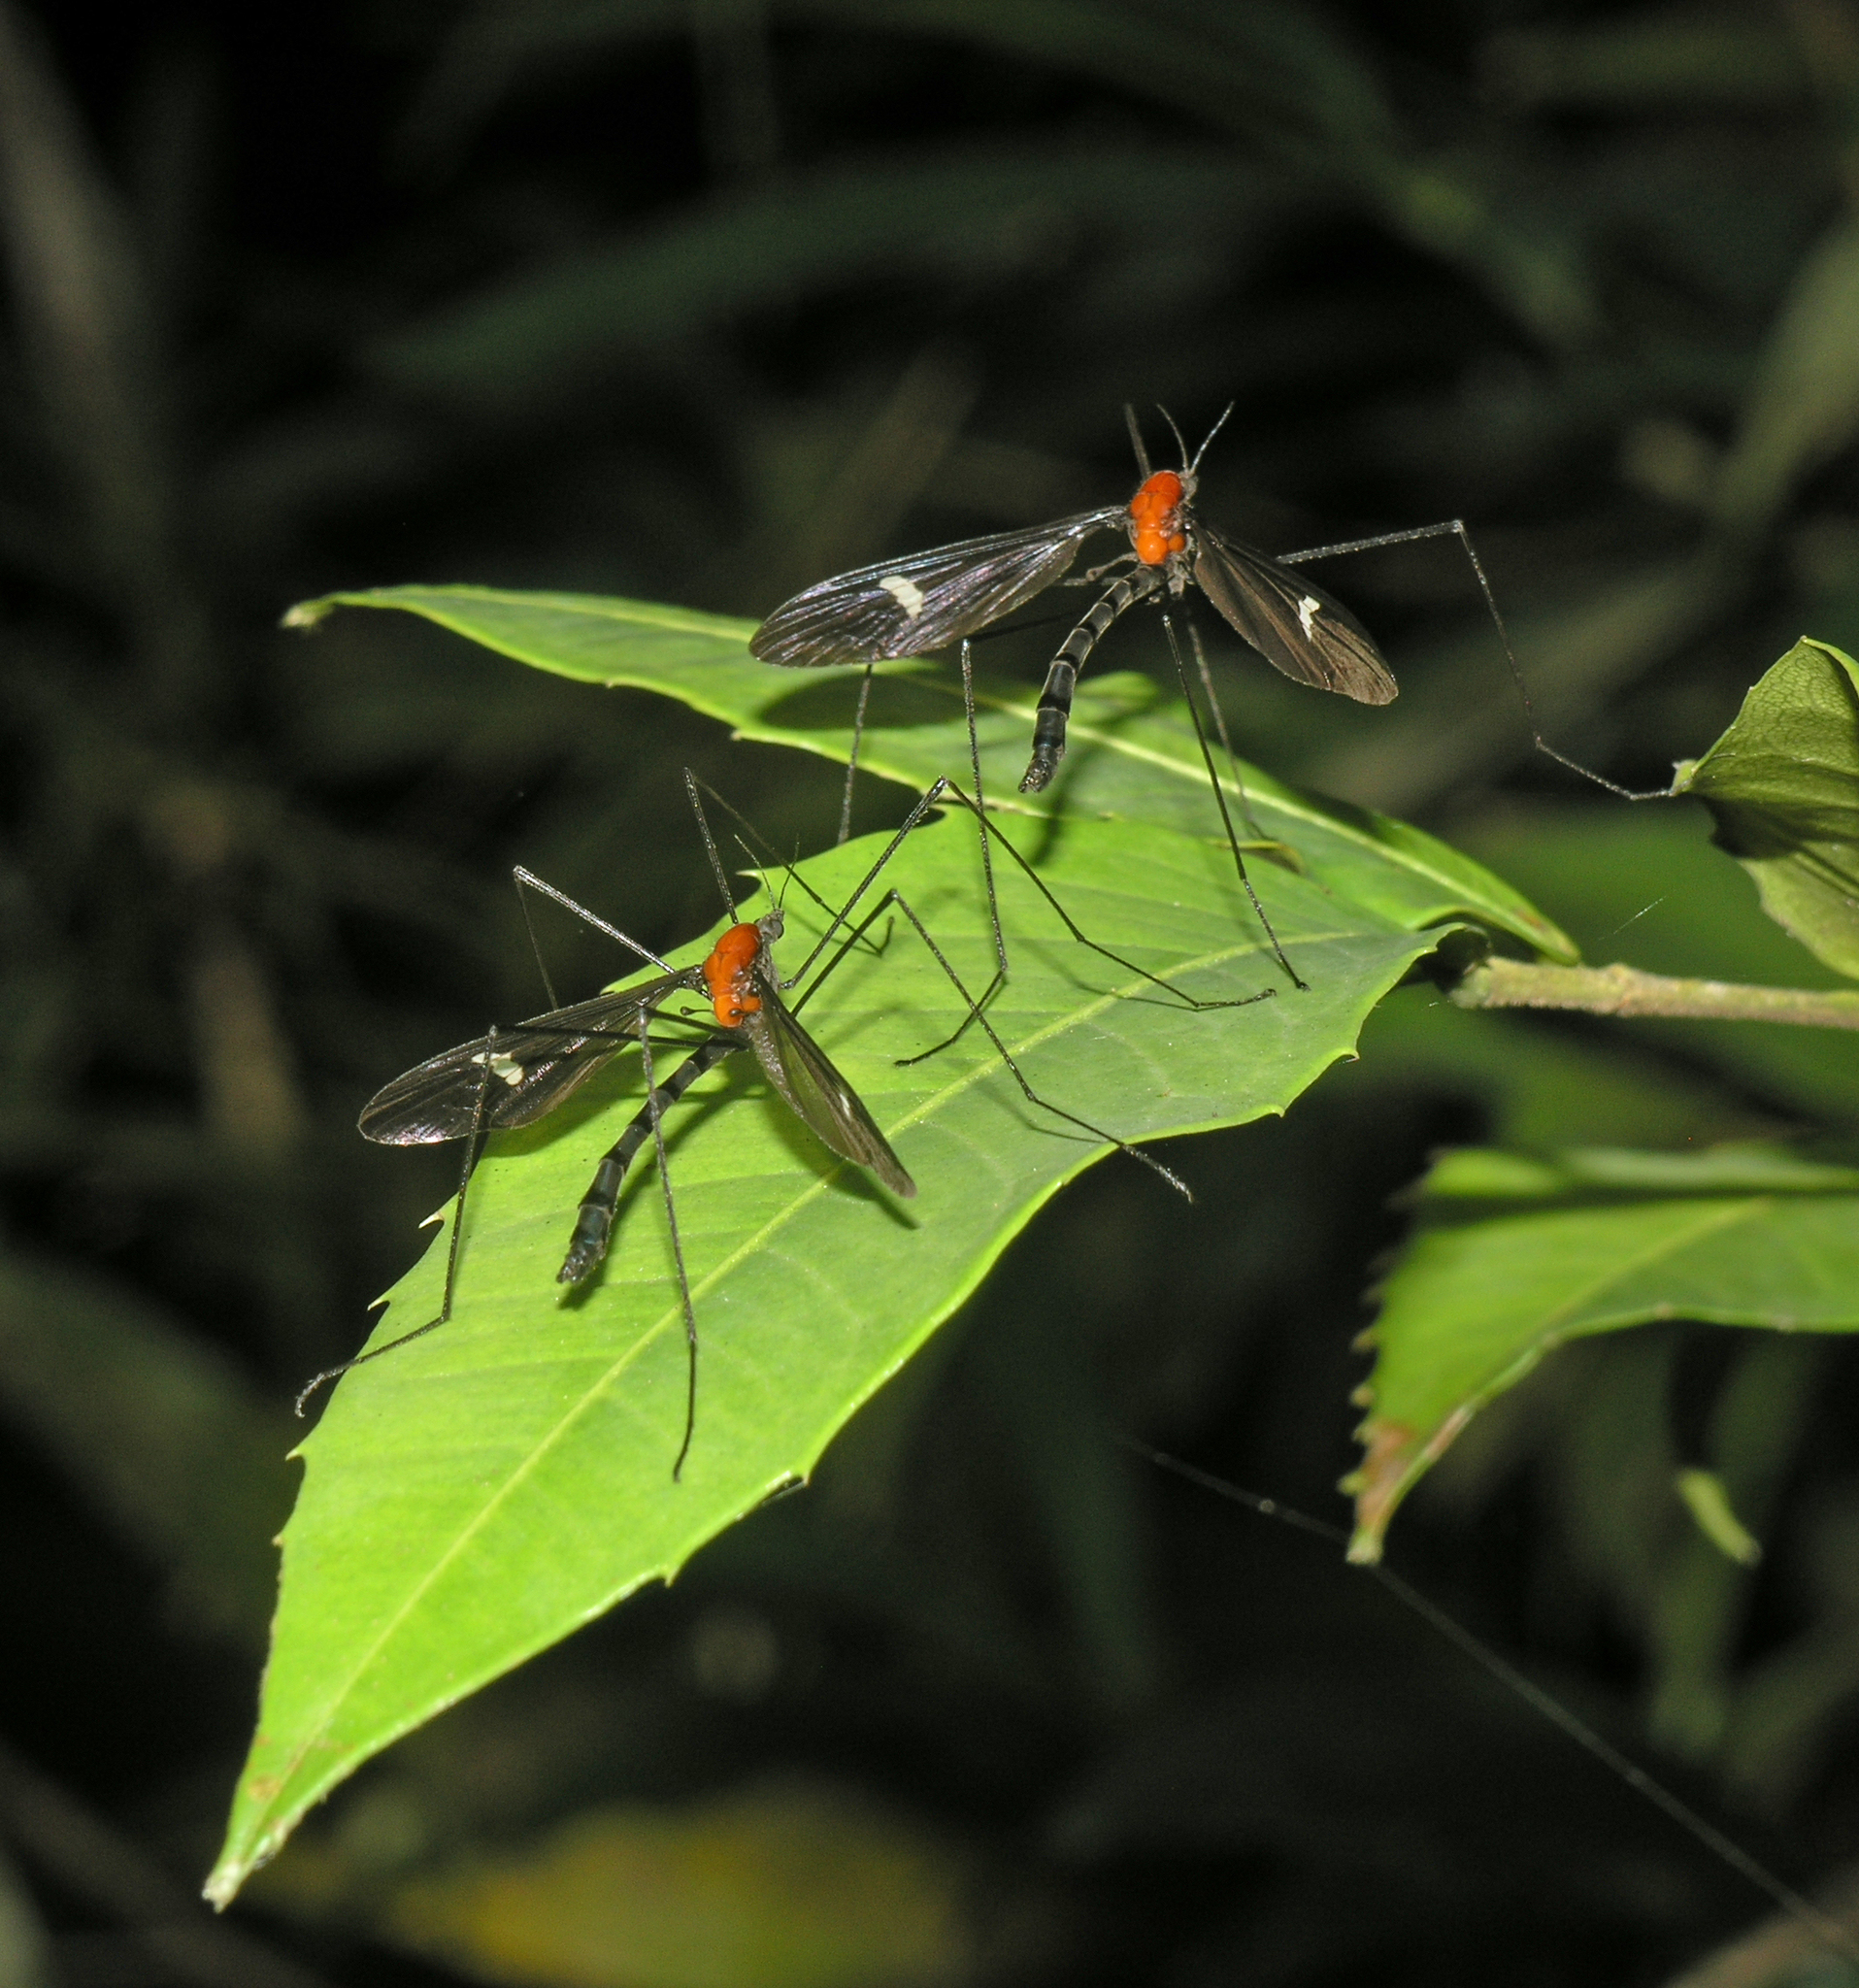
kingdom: Animalia
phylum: Arthropoda
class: Insecta
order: Diptera
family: Limoniidae
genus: Hexatoma
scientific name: Hexatoma fenestrata
